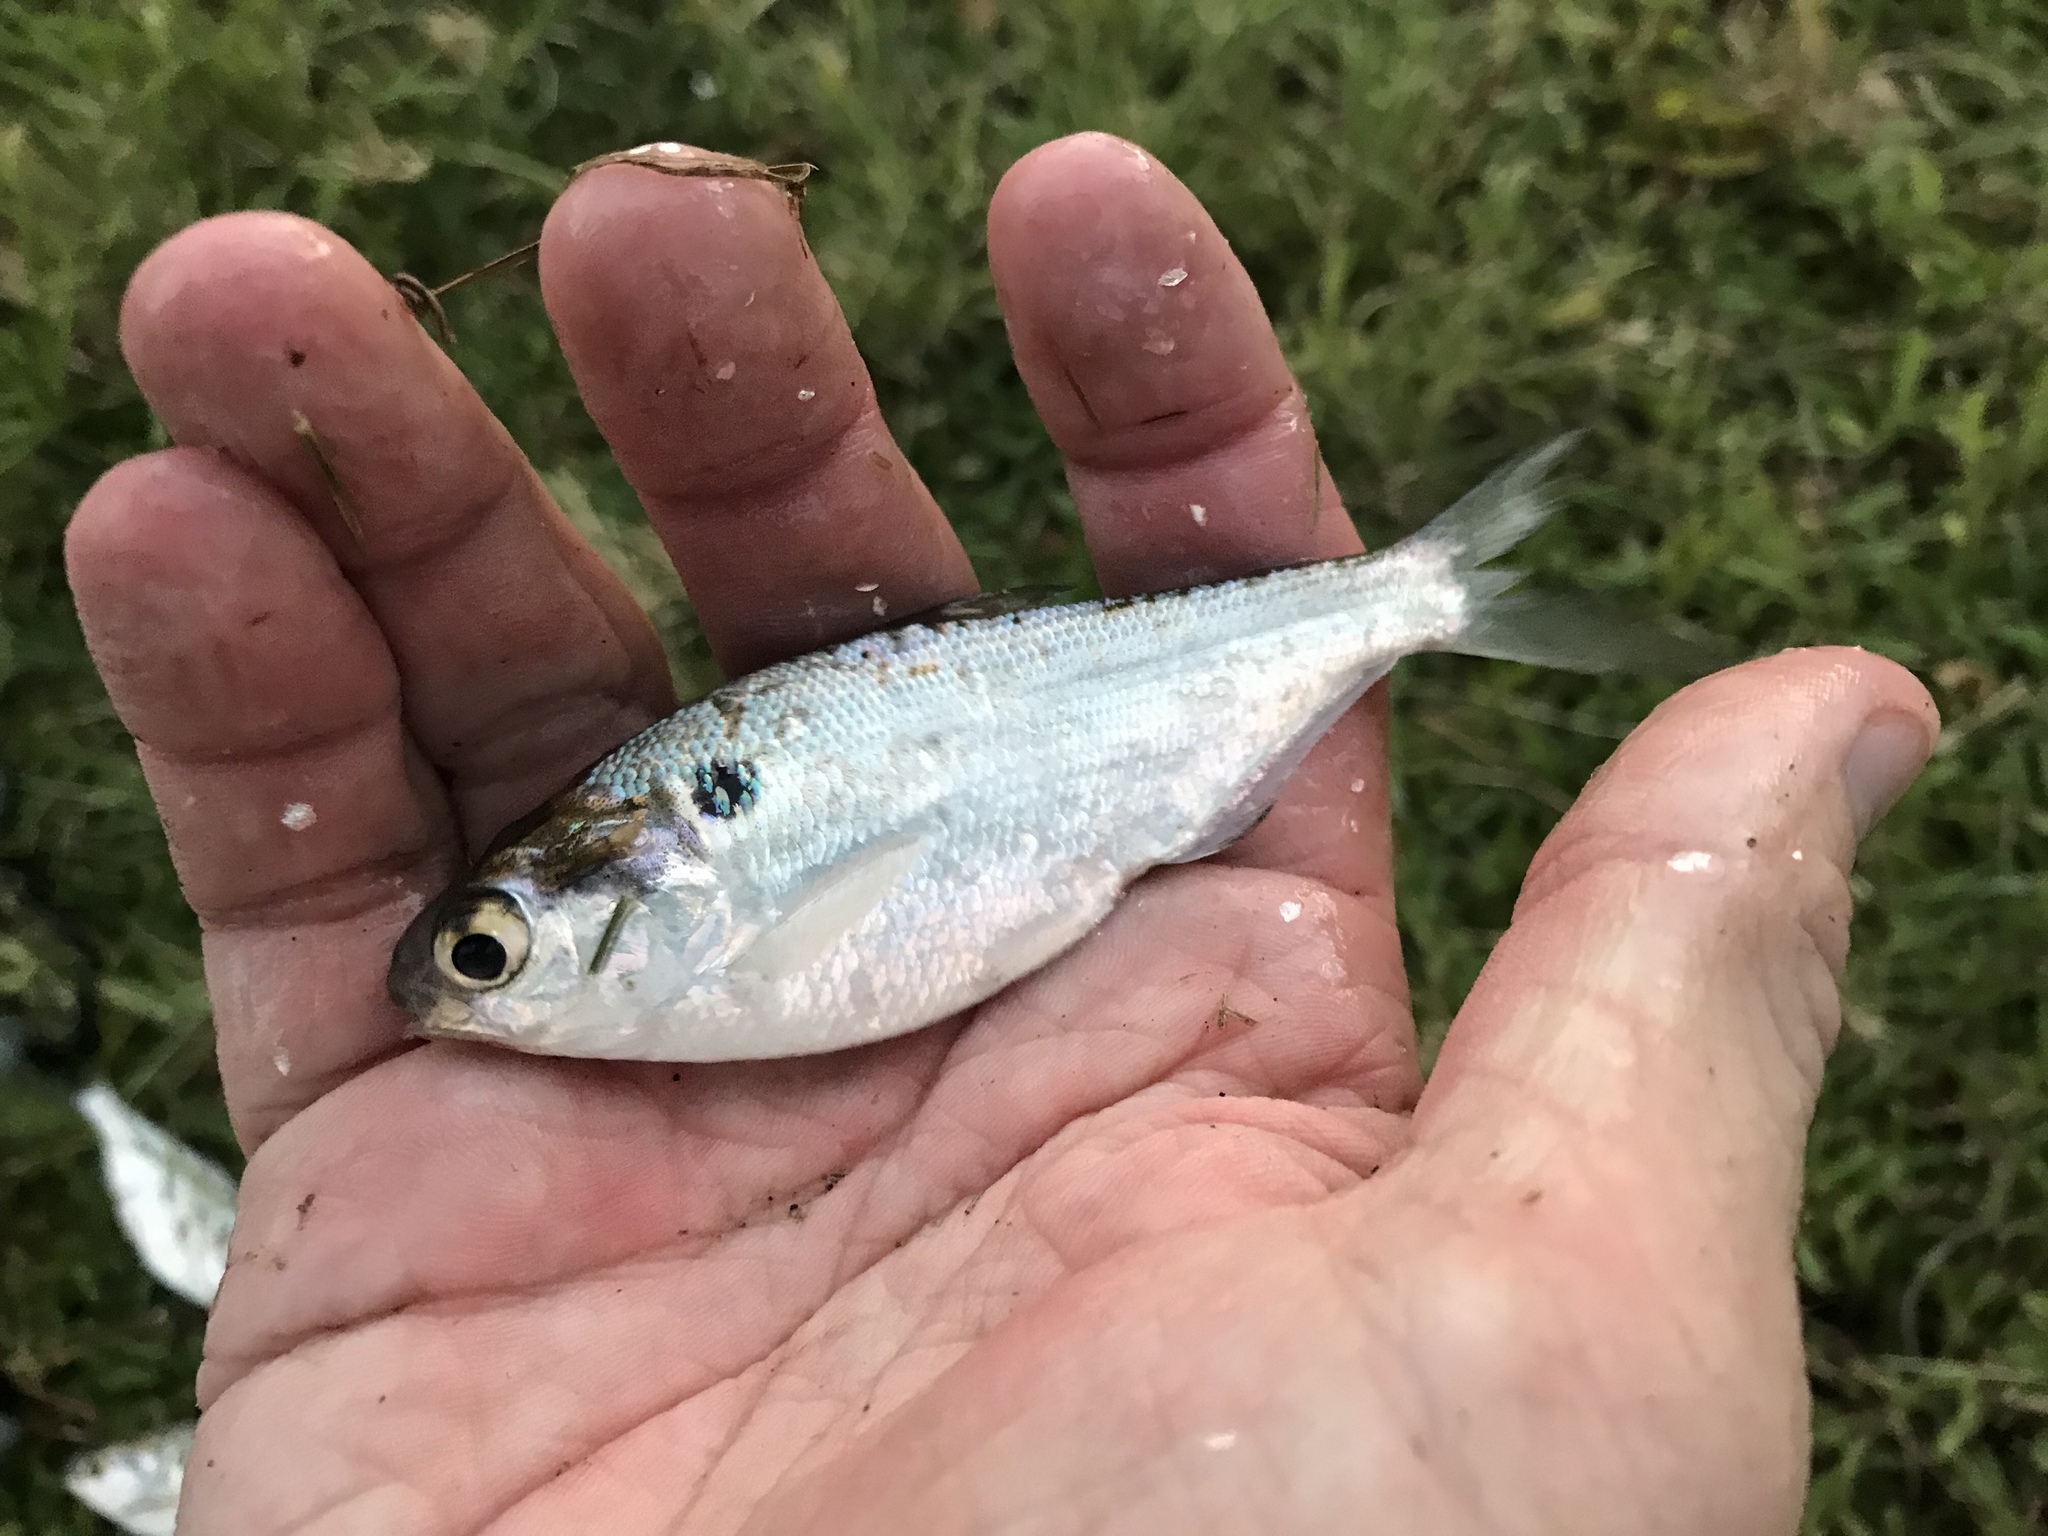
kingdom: Animalia
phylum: Chordata
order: Clupeiformes
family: Clupeidae
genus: Dorosoma
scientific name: Dorosoma cepedianum
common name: Gizzard shad
